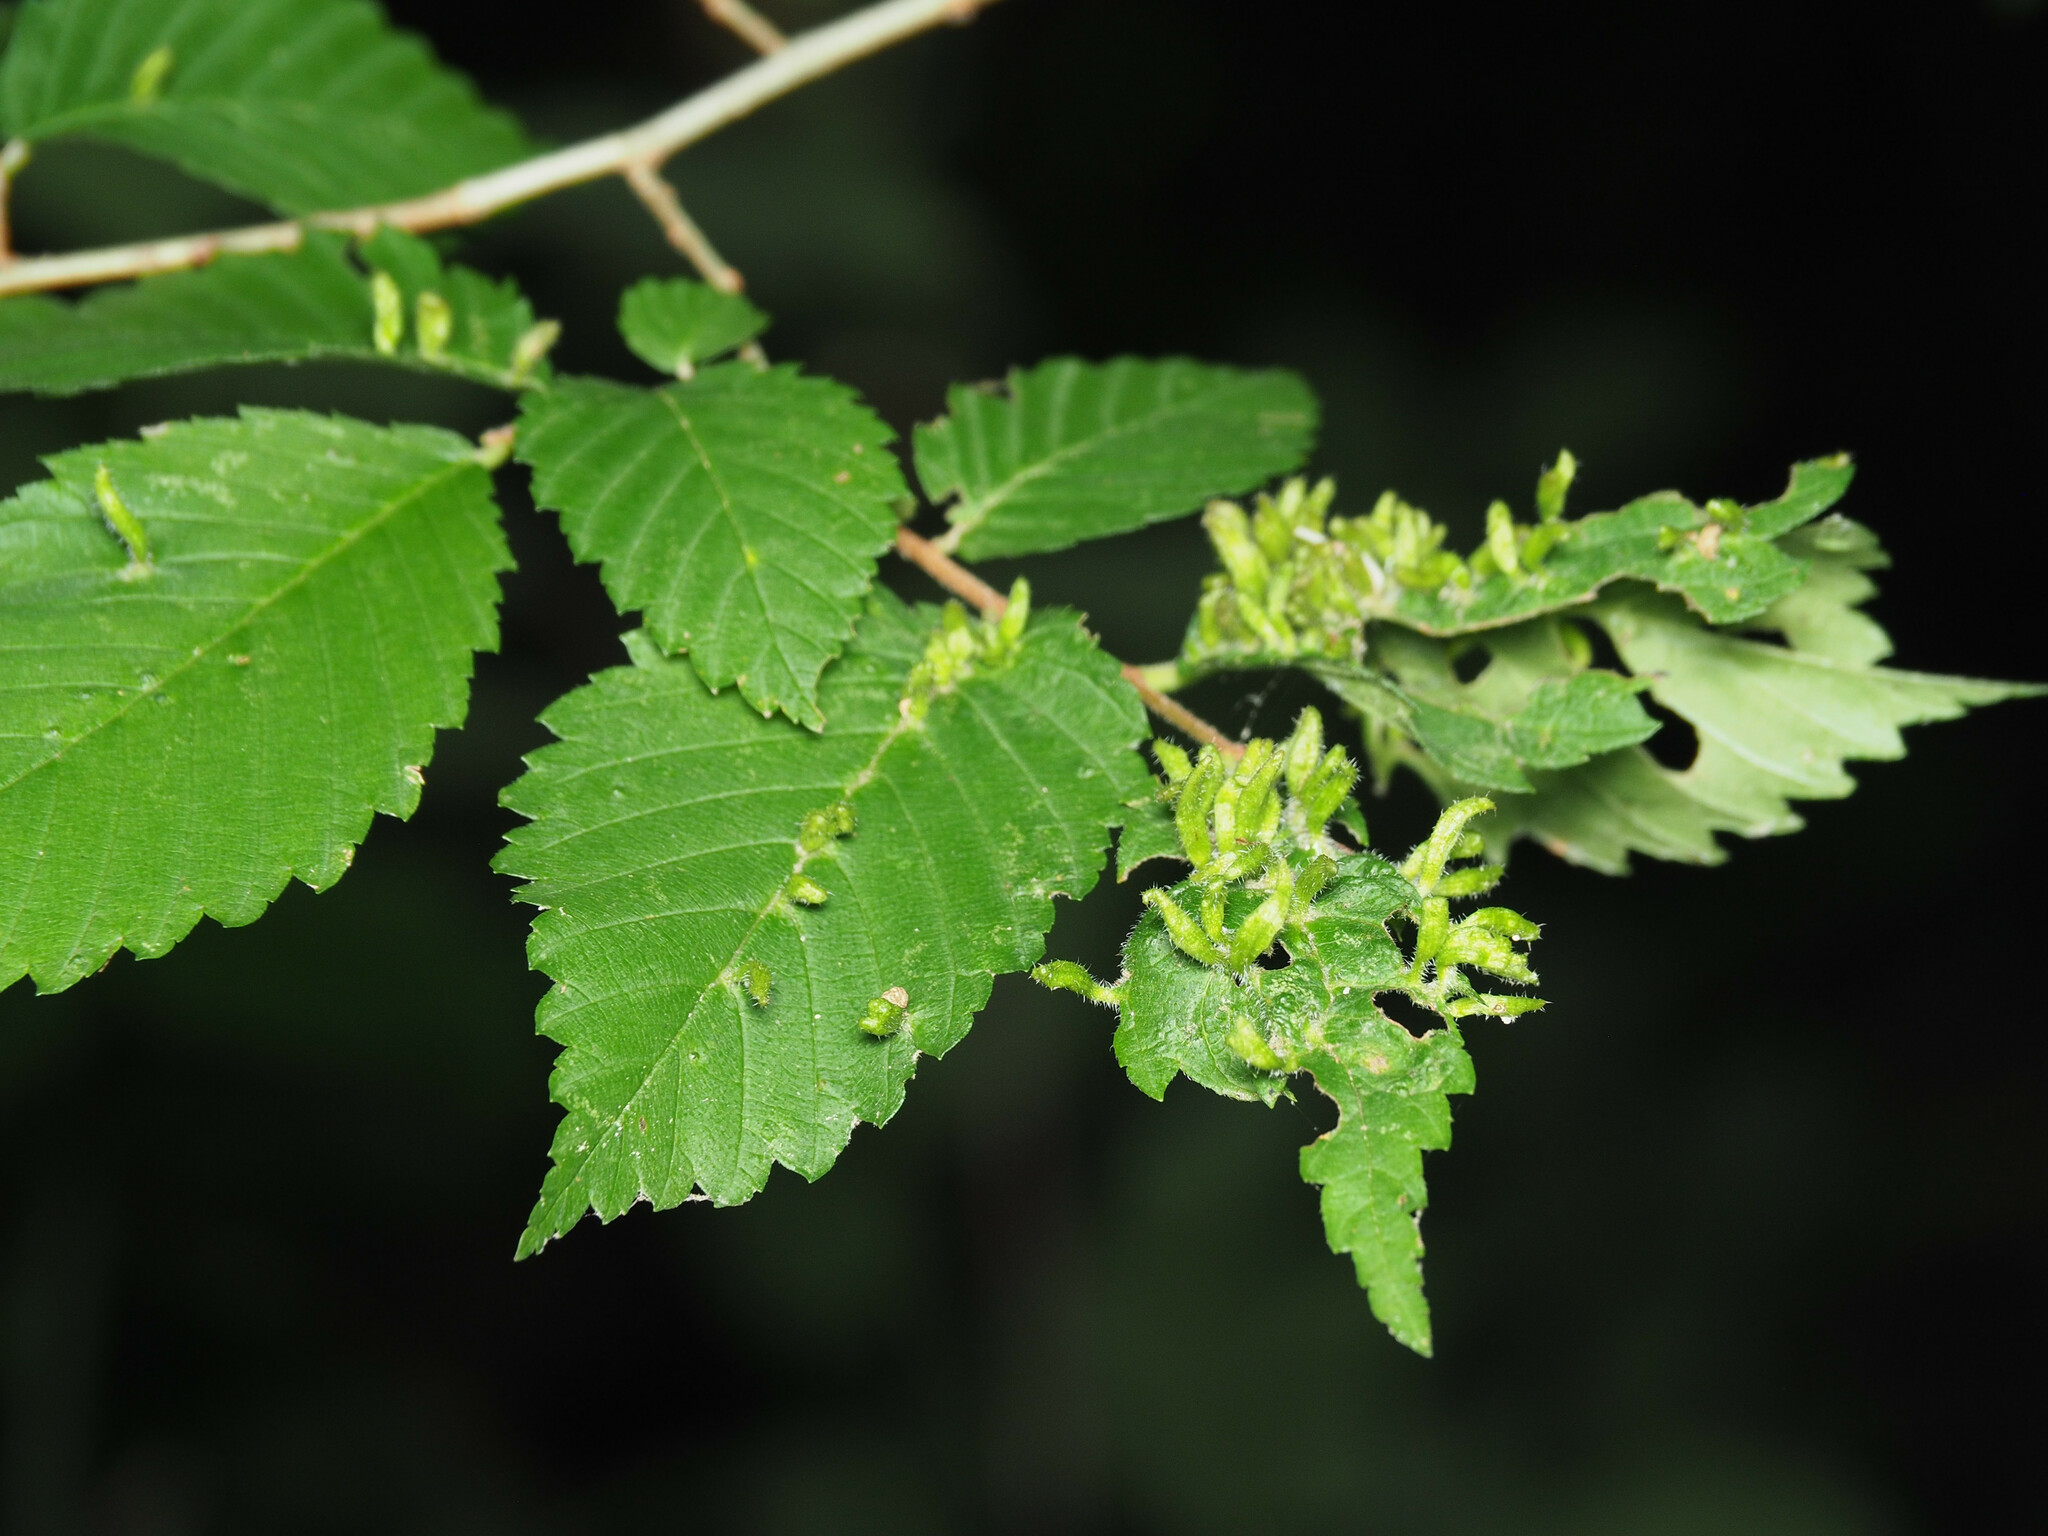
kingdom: Animalia
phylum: Arthropoda
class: Arachnida
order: Trombidiformes
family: Eriophyidae
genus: Aceria
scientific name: Aceria
